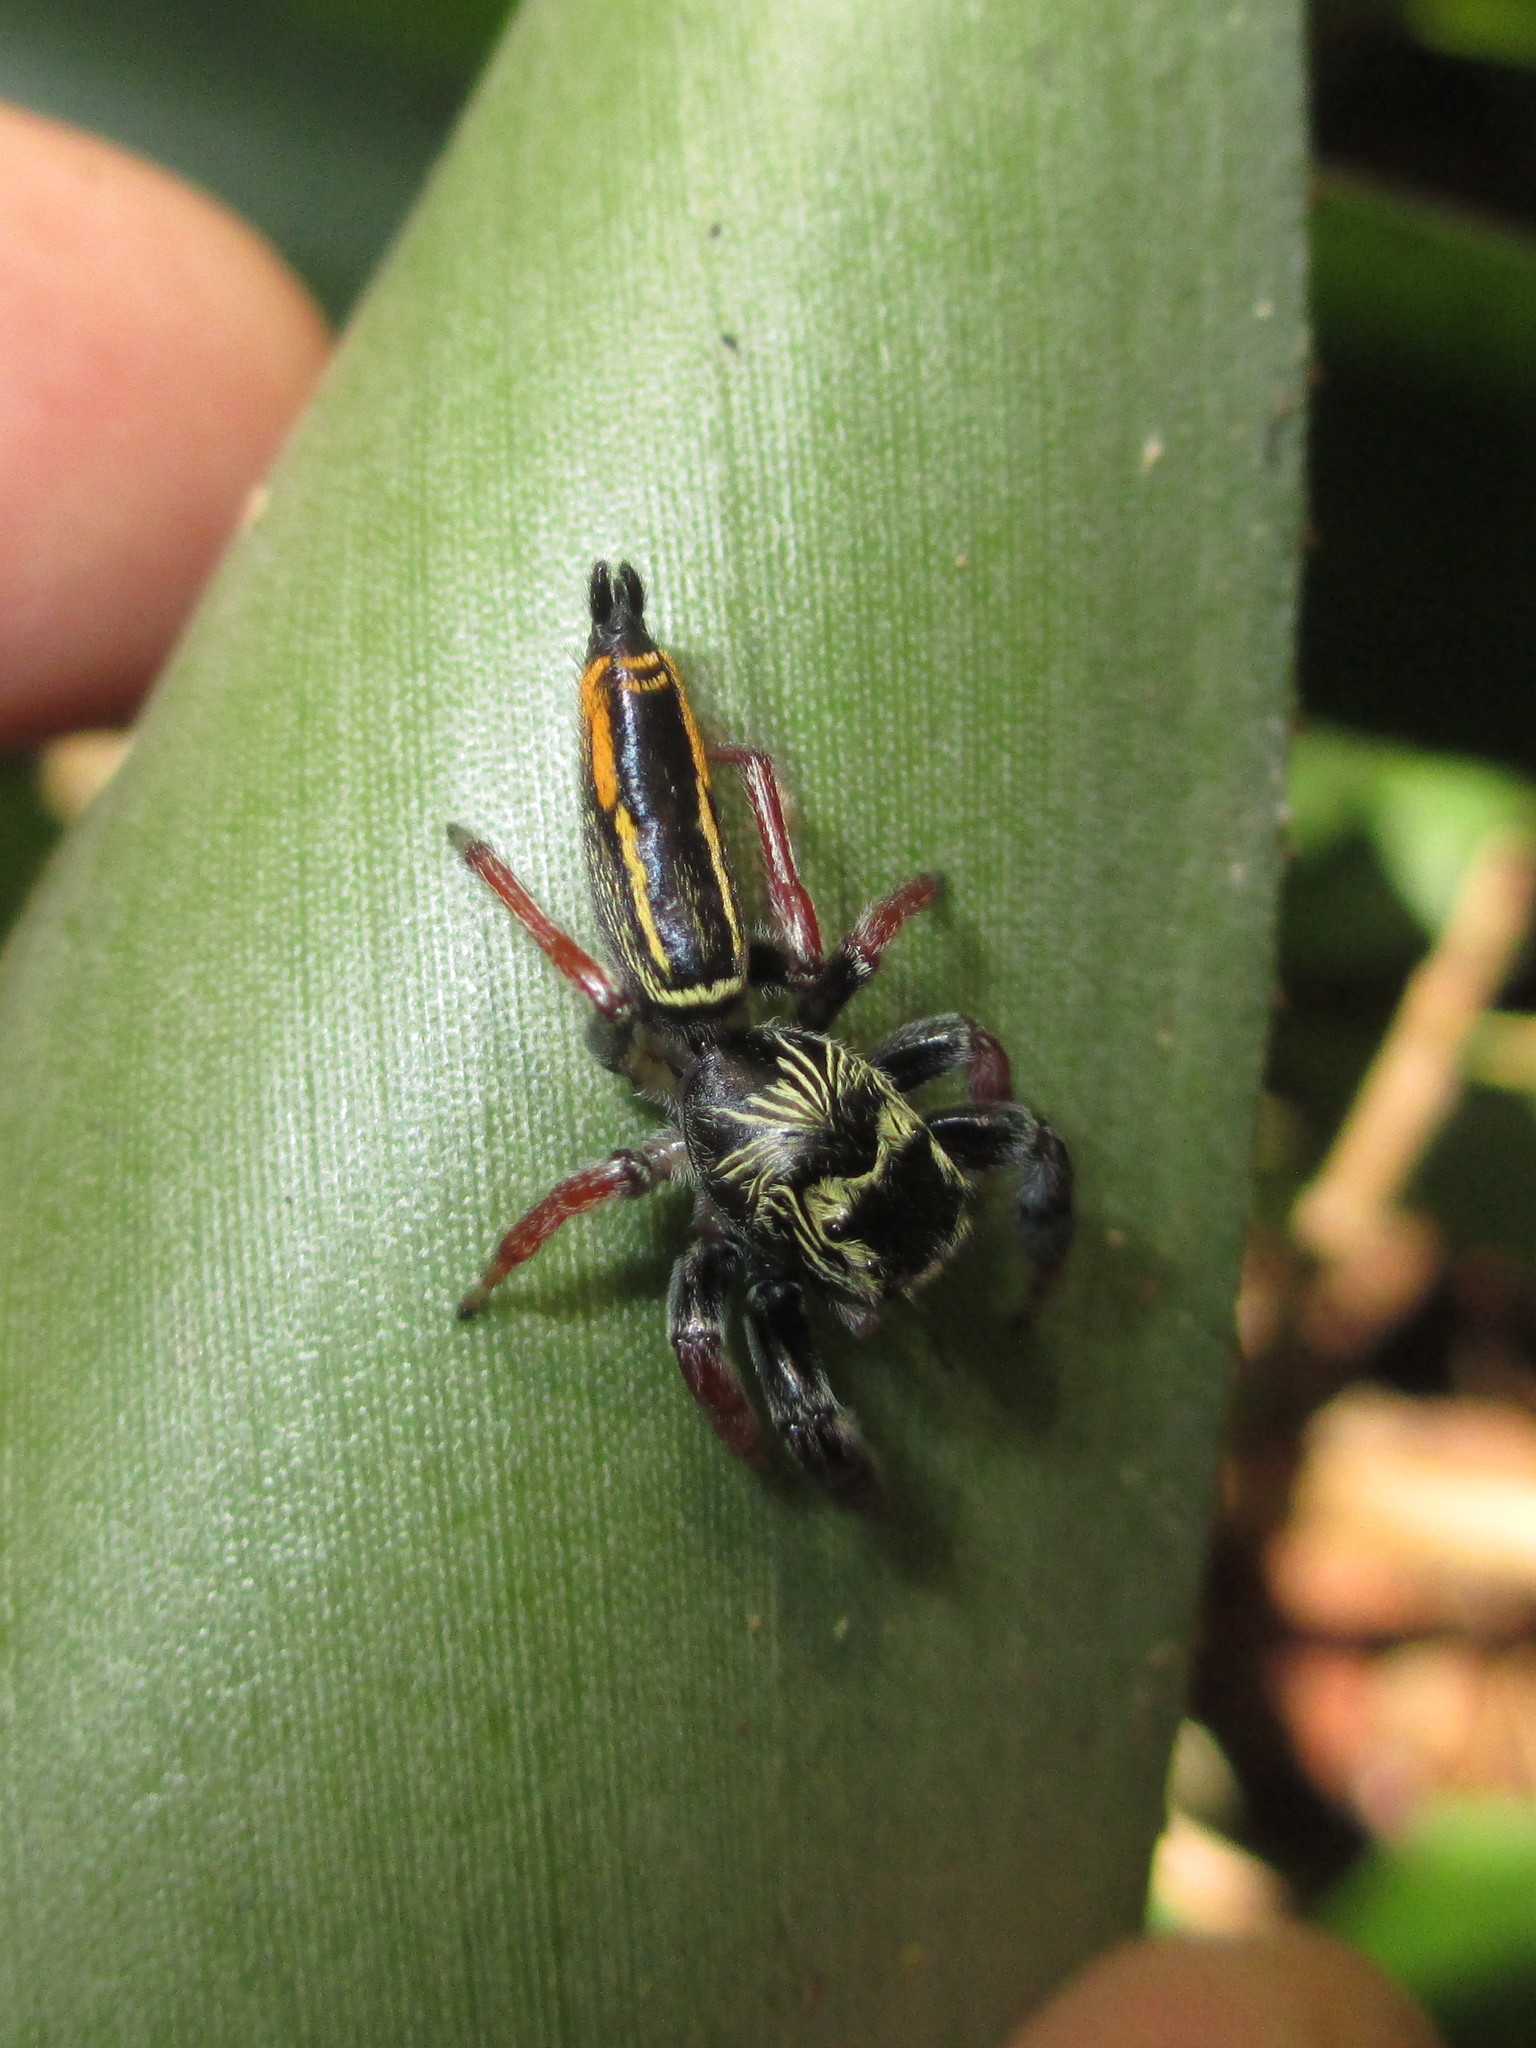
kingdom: Animalia
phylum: Arthropoda
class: Arachnida
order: Araneae
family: Salticidae
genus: Druzia
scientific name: Druzia flavostriata
